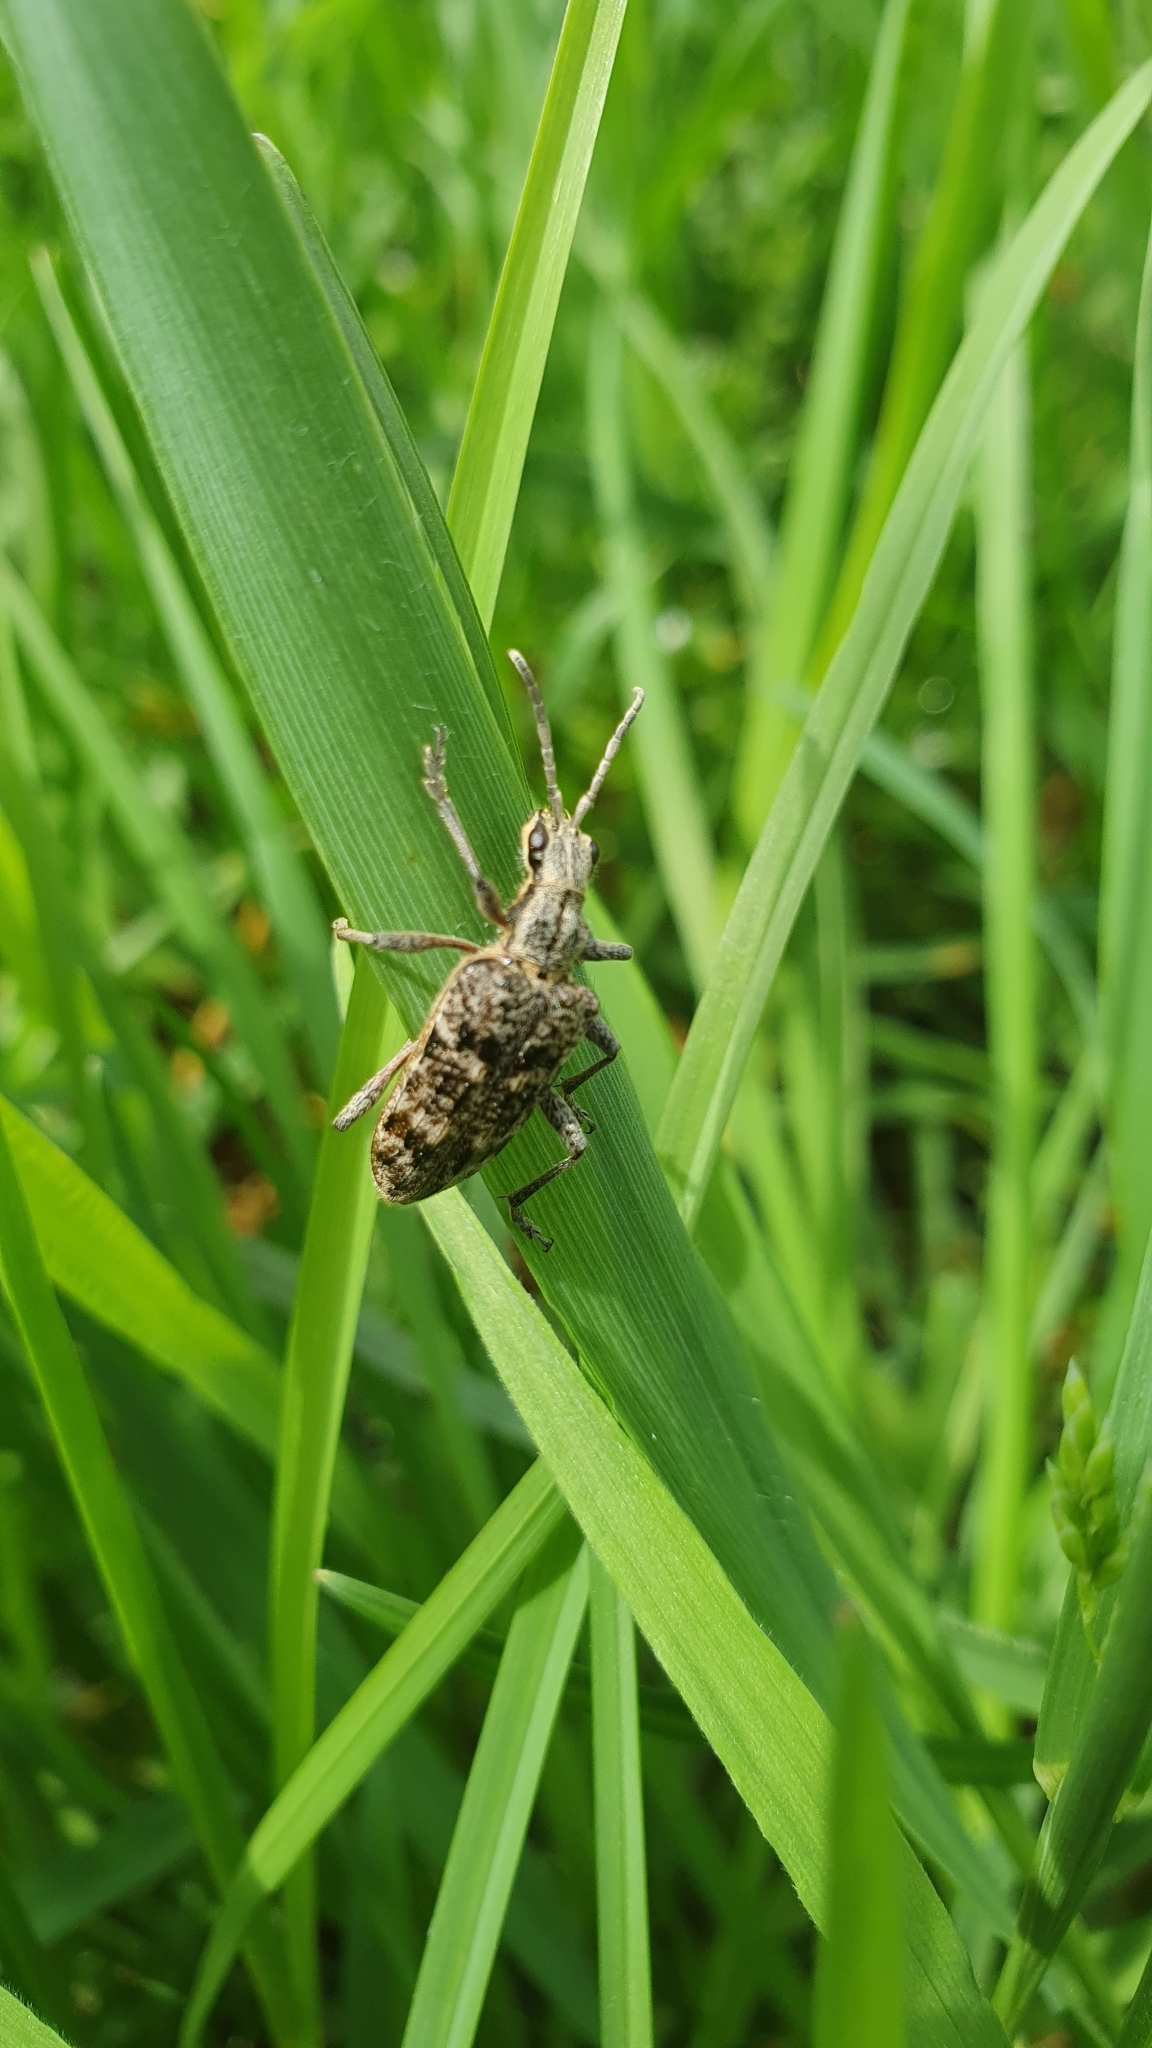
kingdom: Animalia
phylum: Arthropoda
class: Insecta
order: Coleoptera
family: Cerambycidae
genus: Rhagium
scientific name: Rhagium inquisitor
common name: Ribbed pine borer
